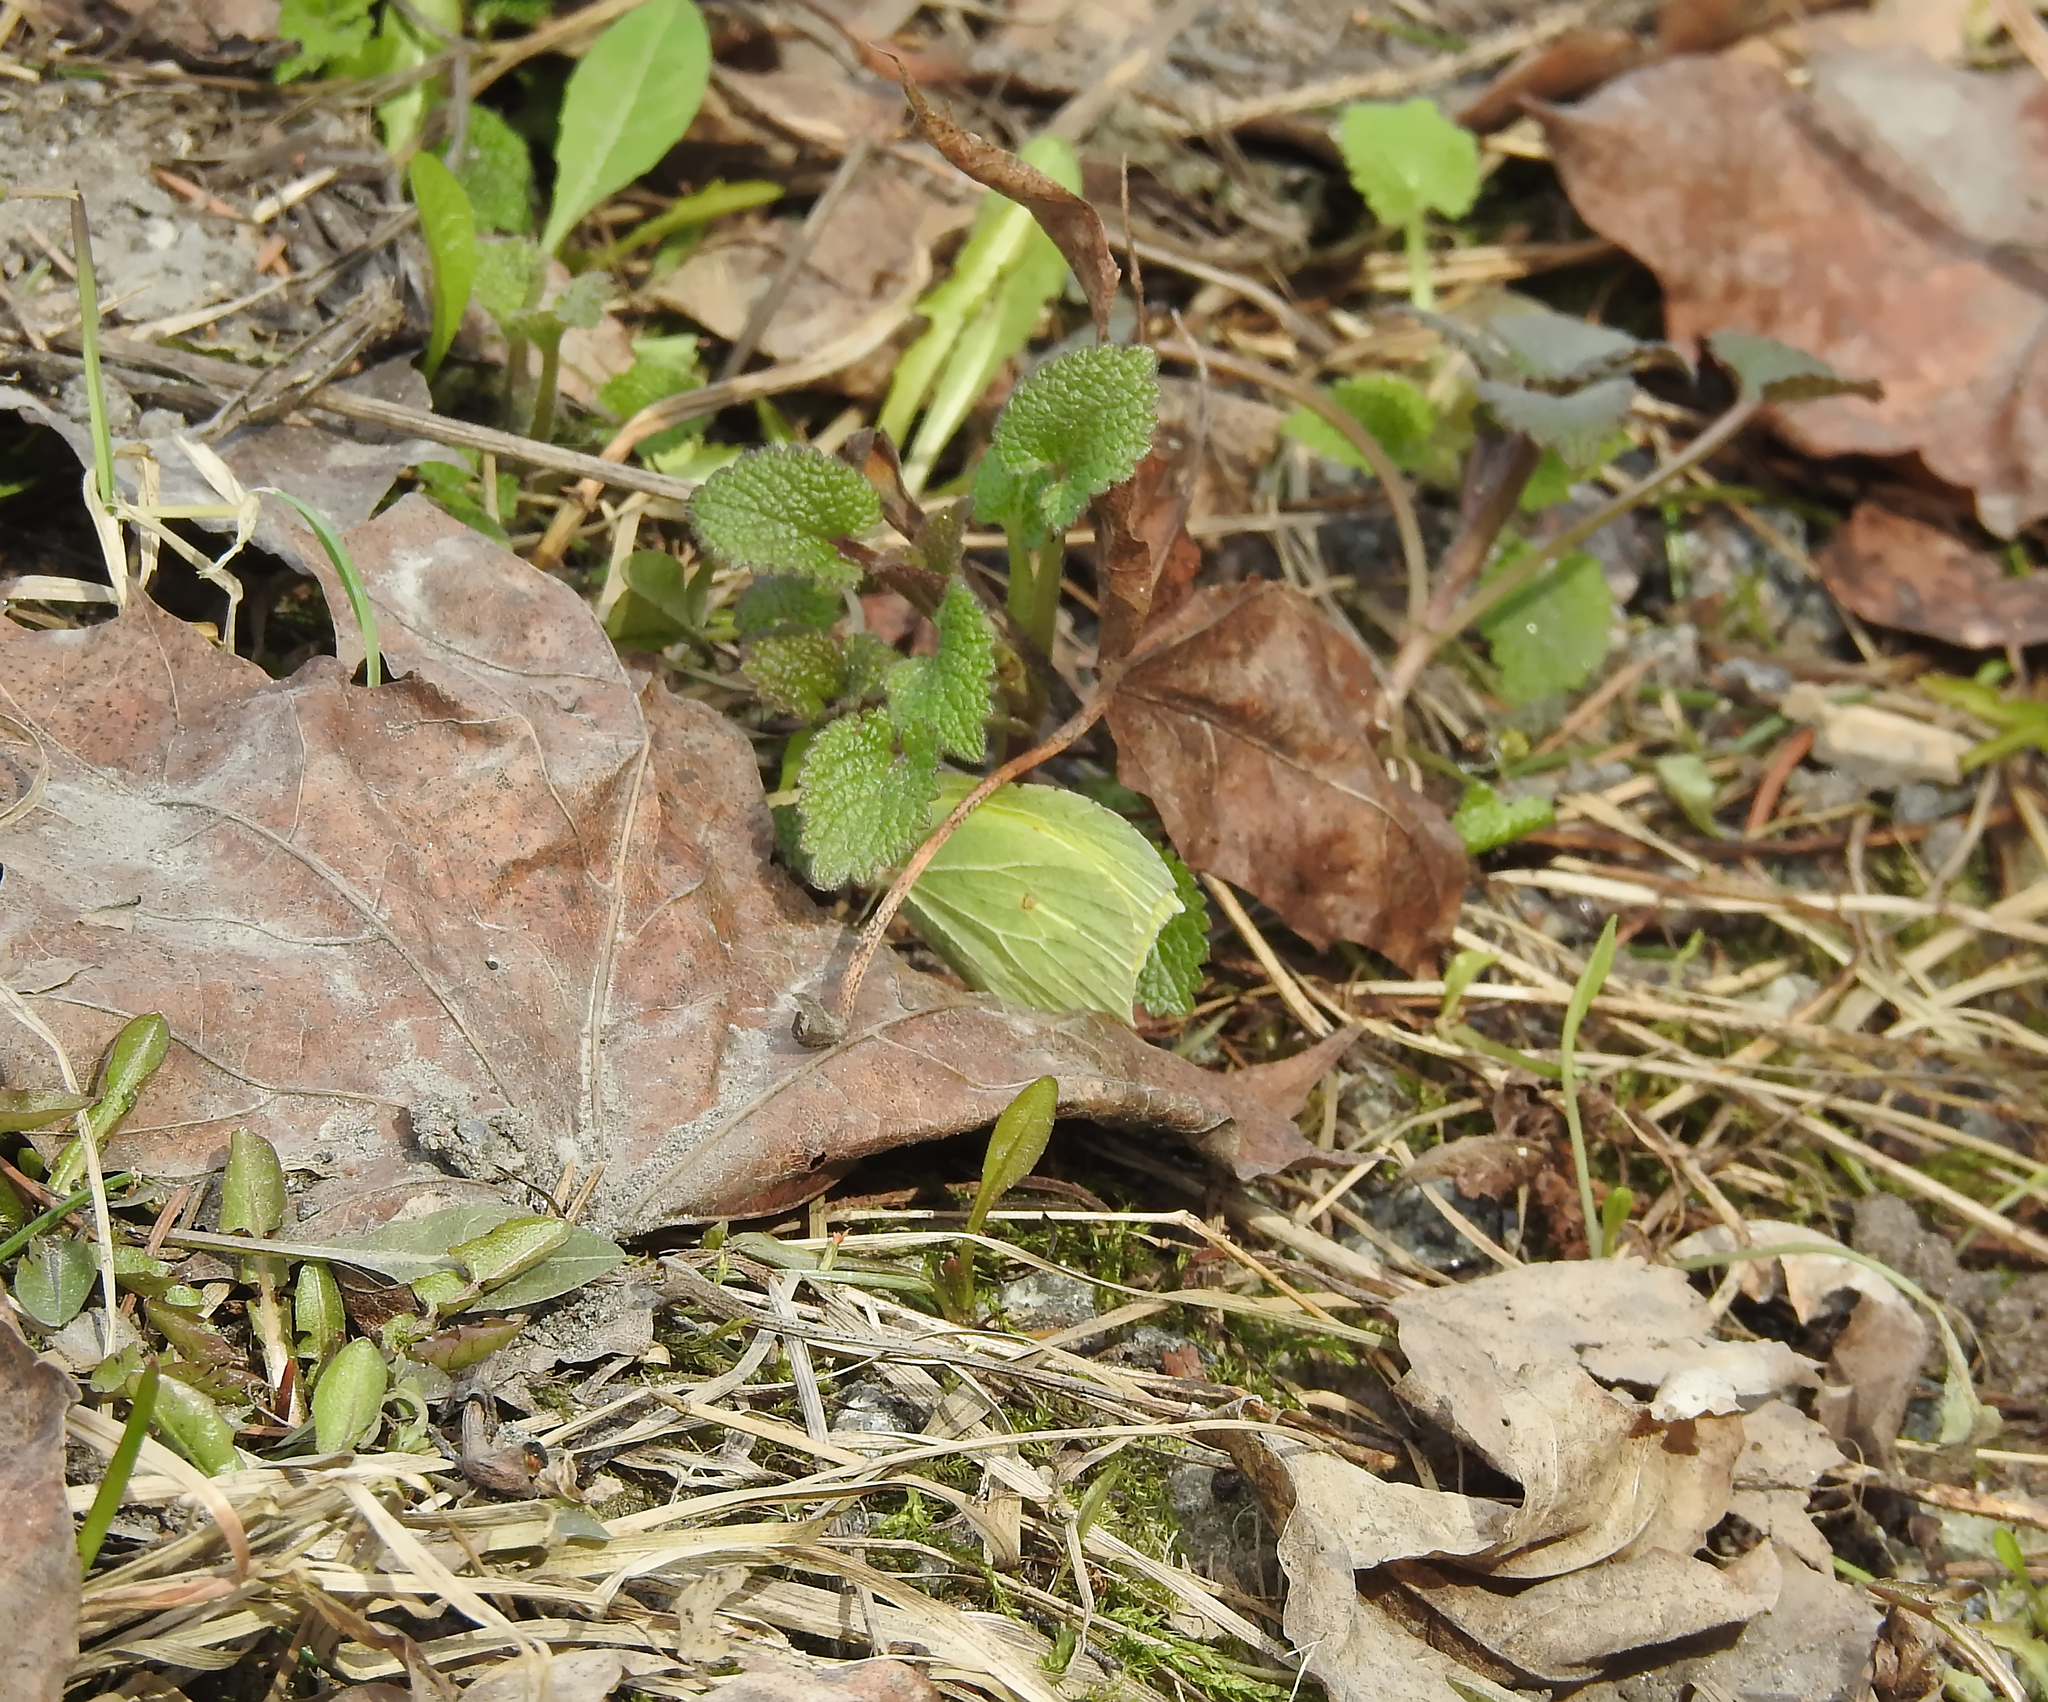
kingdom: Animalia
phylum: Arthropoda
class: Insecta
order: Lepidoptera
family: Pieridae
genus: Gonepteryx
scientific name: Gonepteryx rhamni
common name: Brimstone
